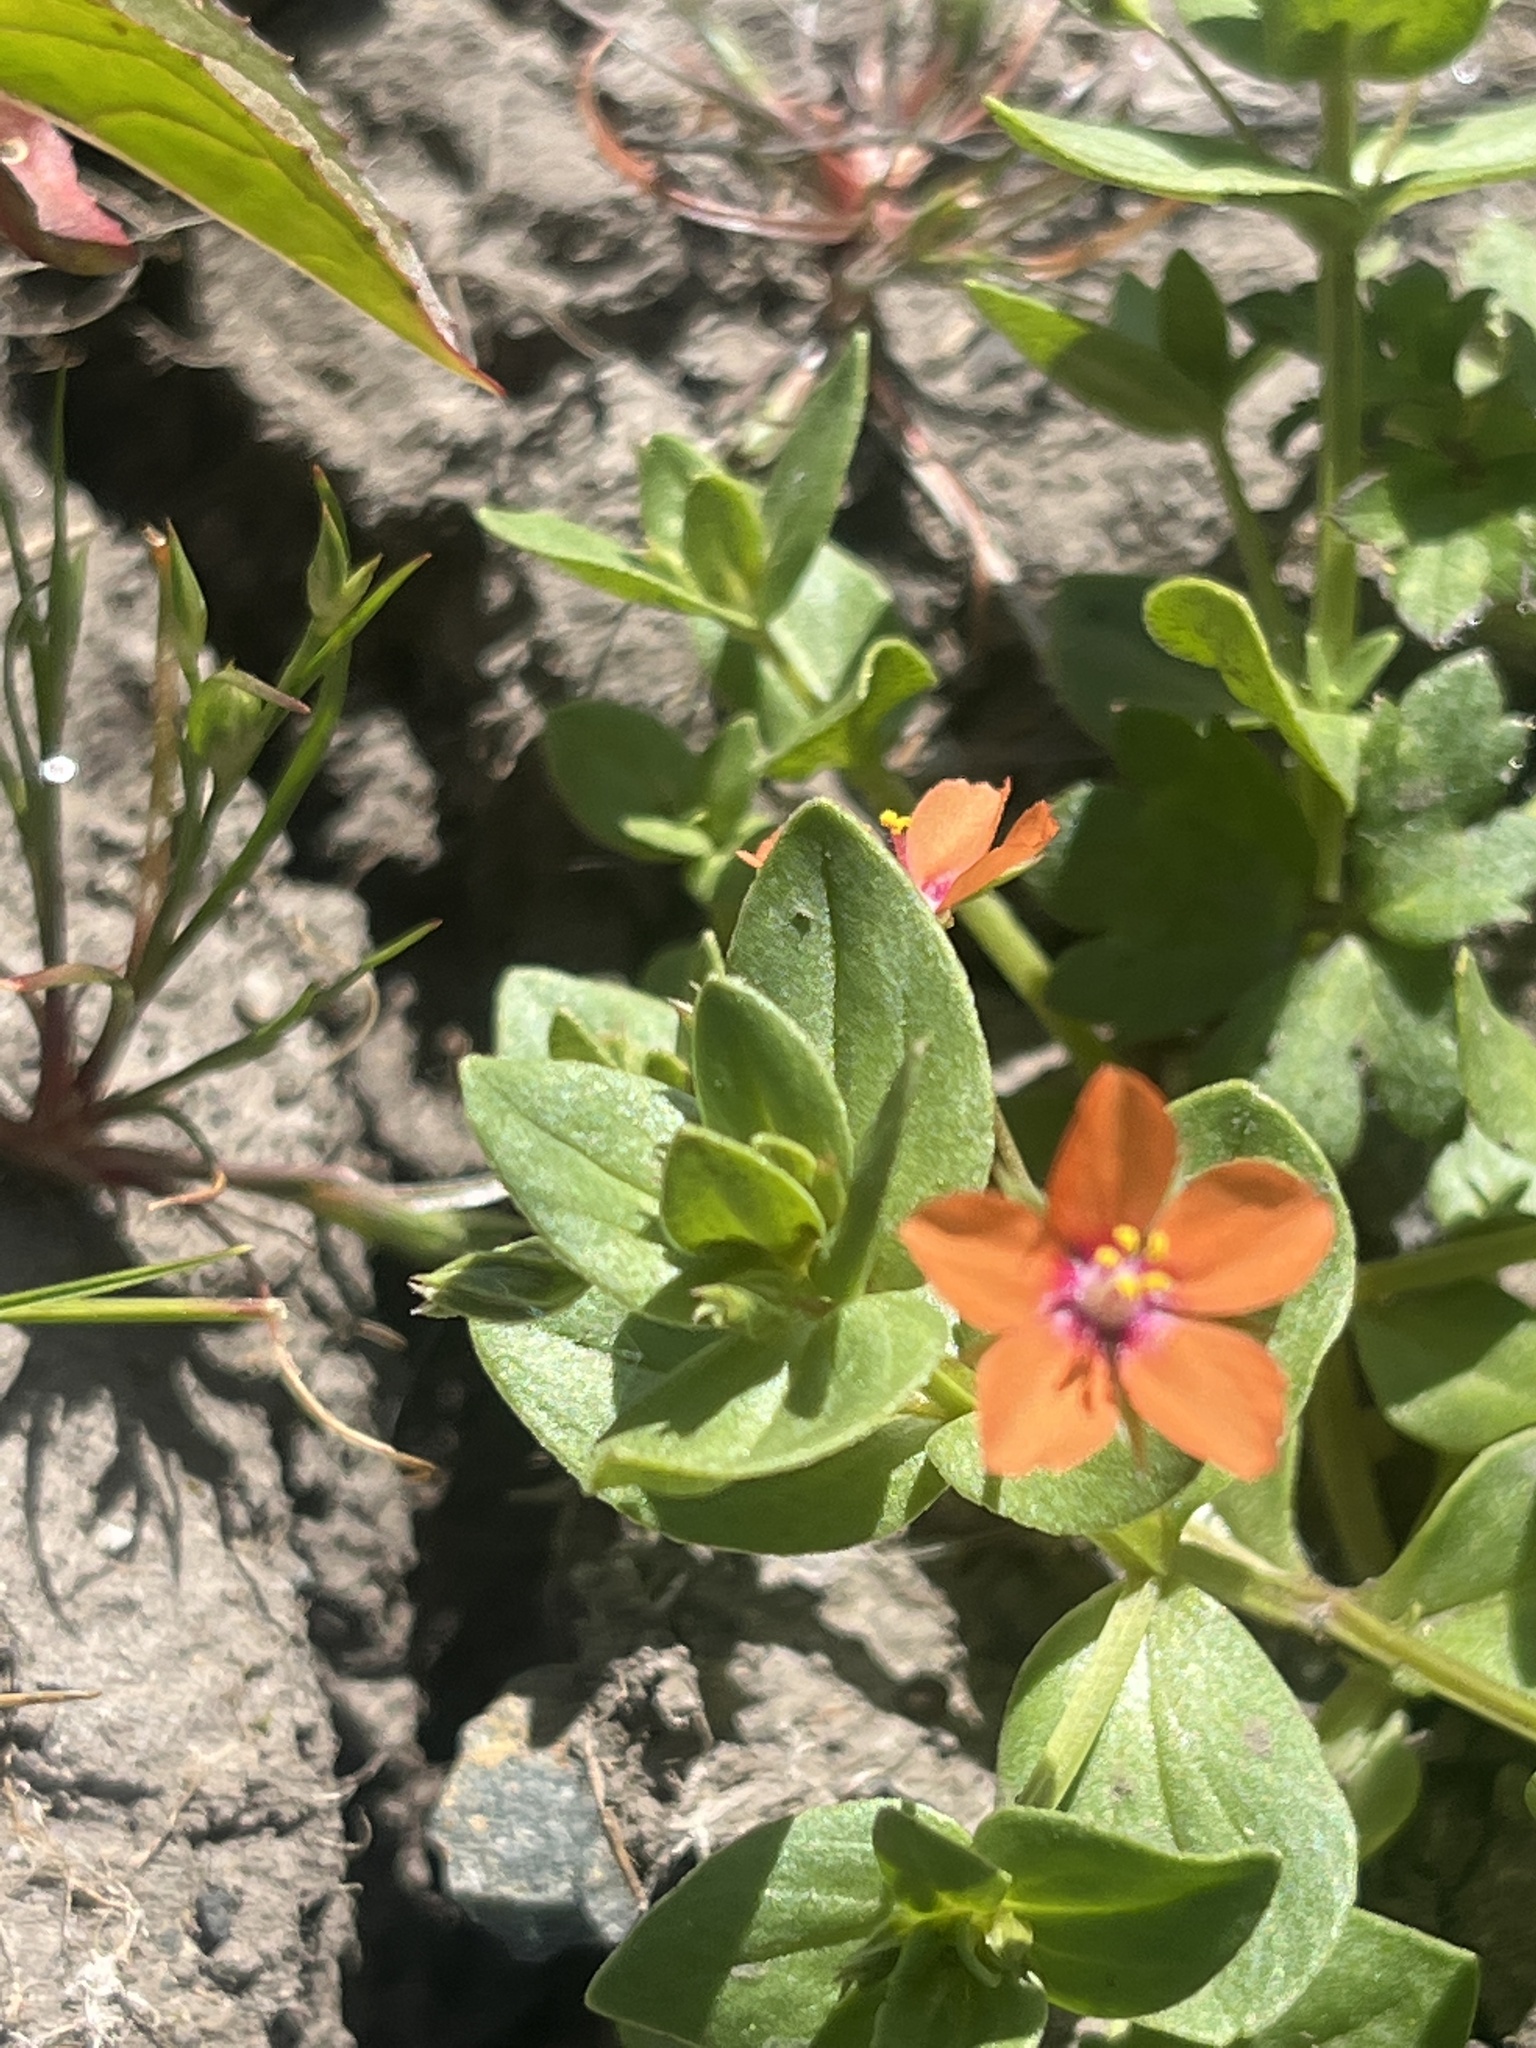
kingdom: Plantae
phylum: Tracheophyta
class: Magnoliopsida
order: Ericales
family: Primulaceae
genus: Lysimachia
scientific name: Lysimachia arvensis
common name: Scarlet pimpernel
